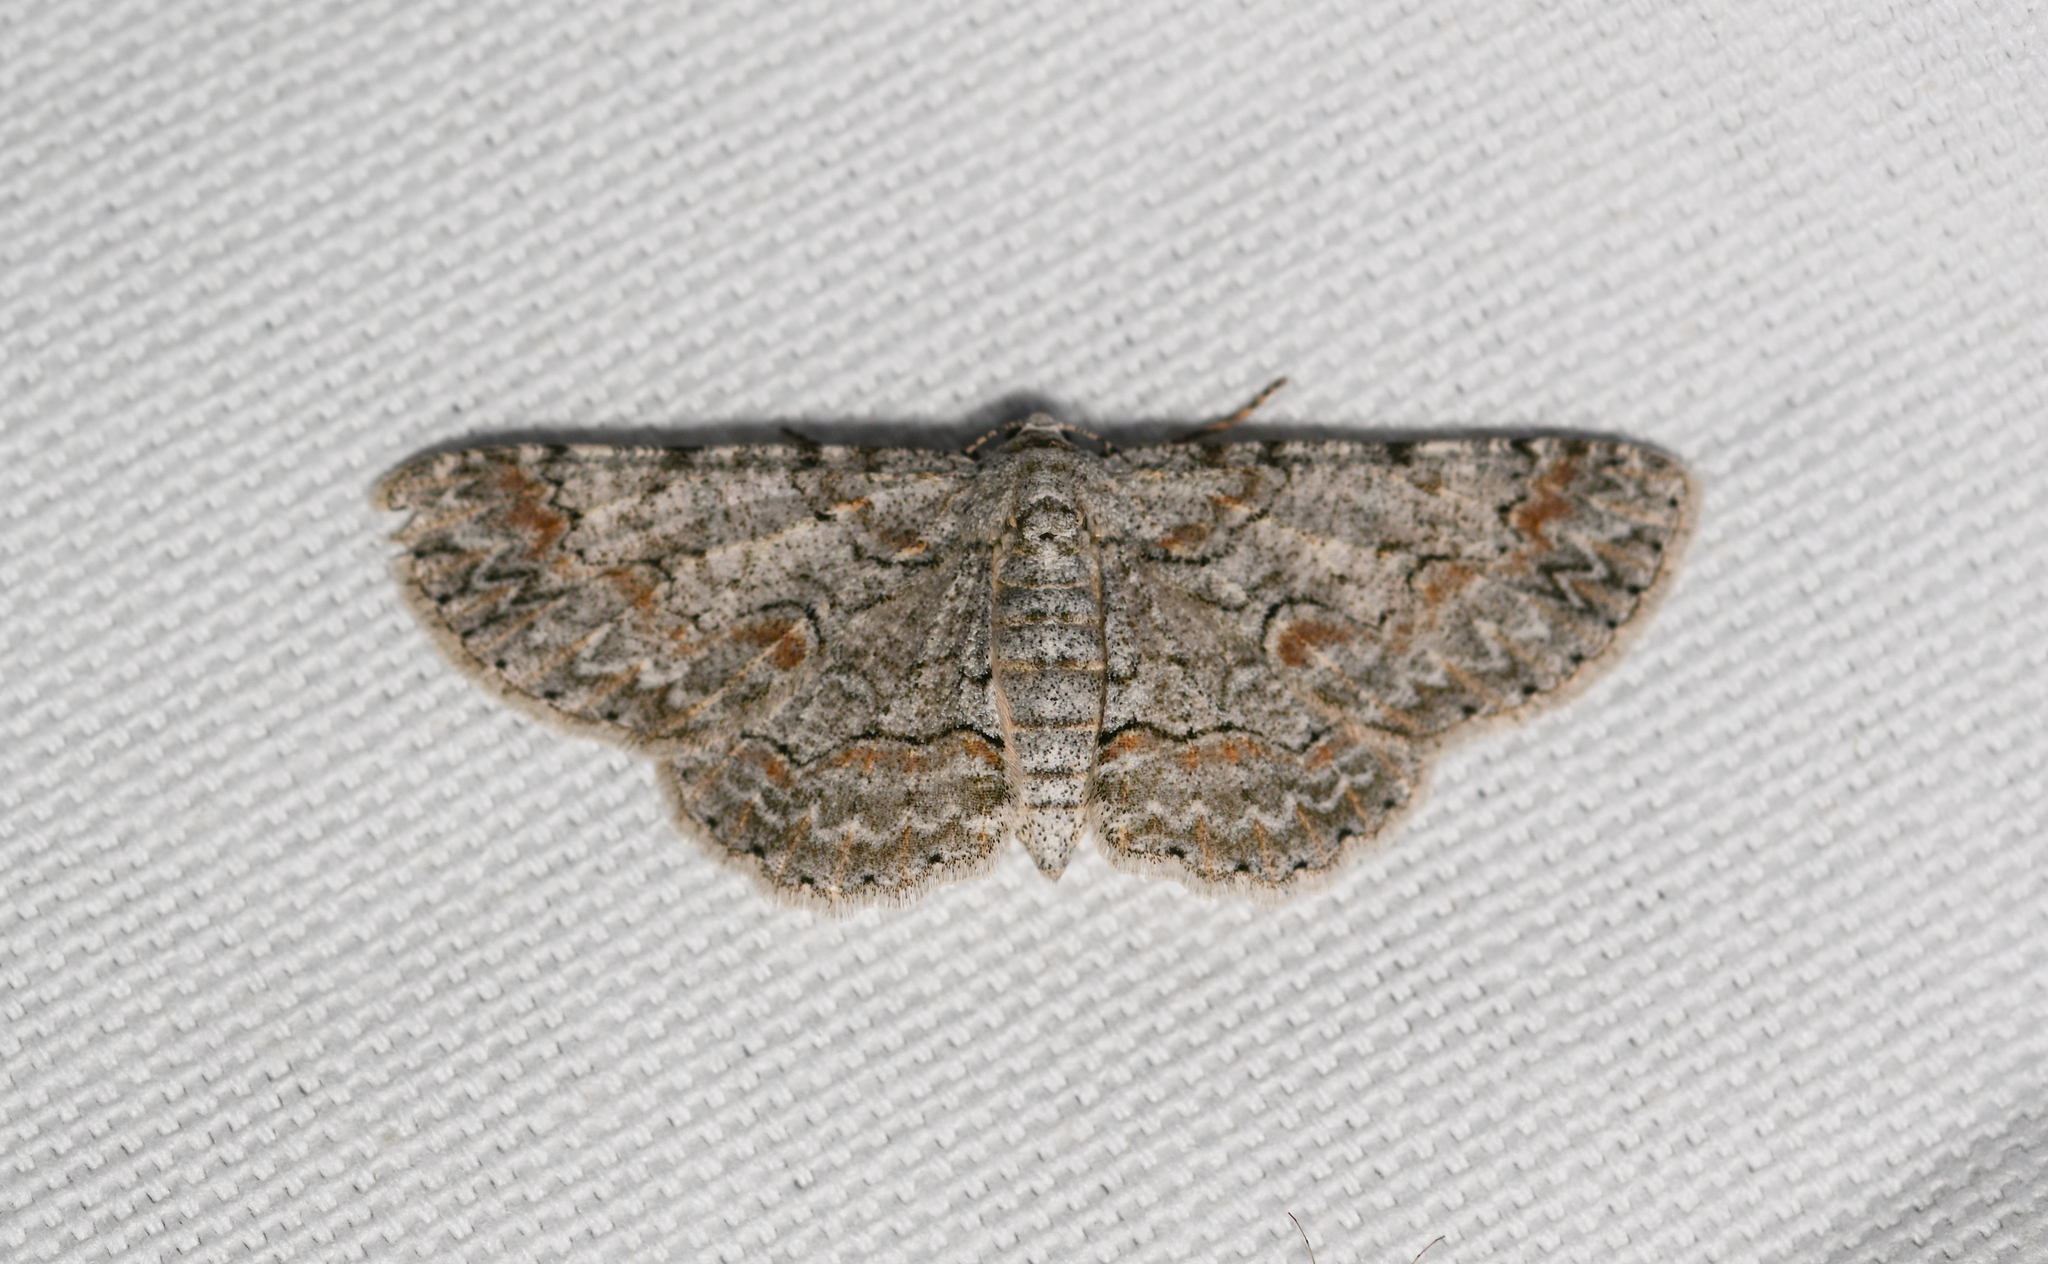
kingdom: Animalia
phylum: Arthropoda
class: Insecta
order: Lepidoptera
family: Geometridae
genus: Iridopsis
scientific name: Iridopsis defectaria
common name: Brown-shaded gray
